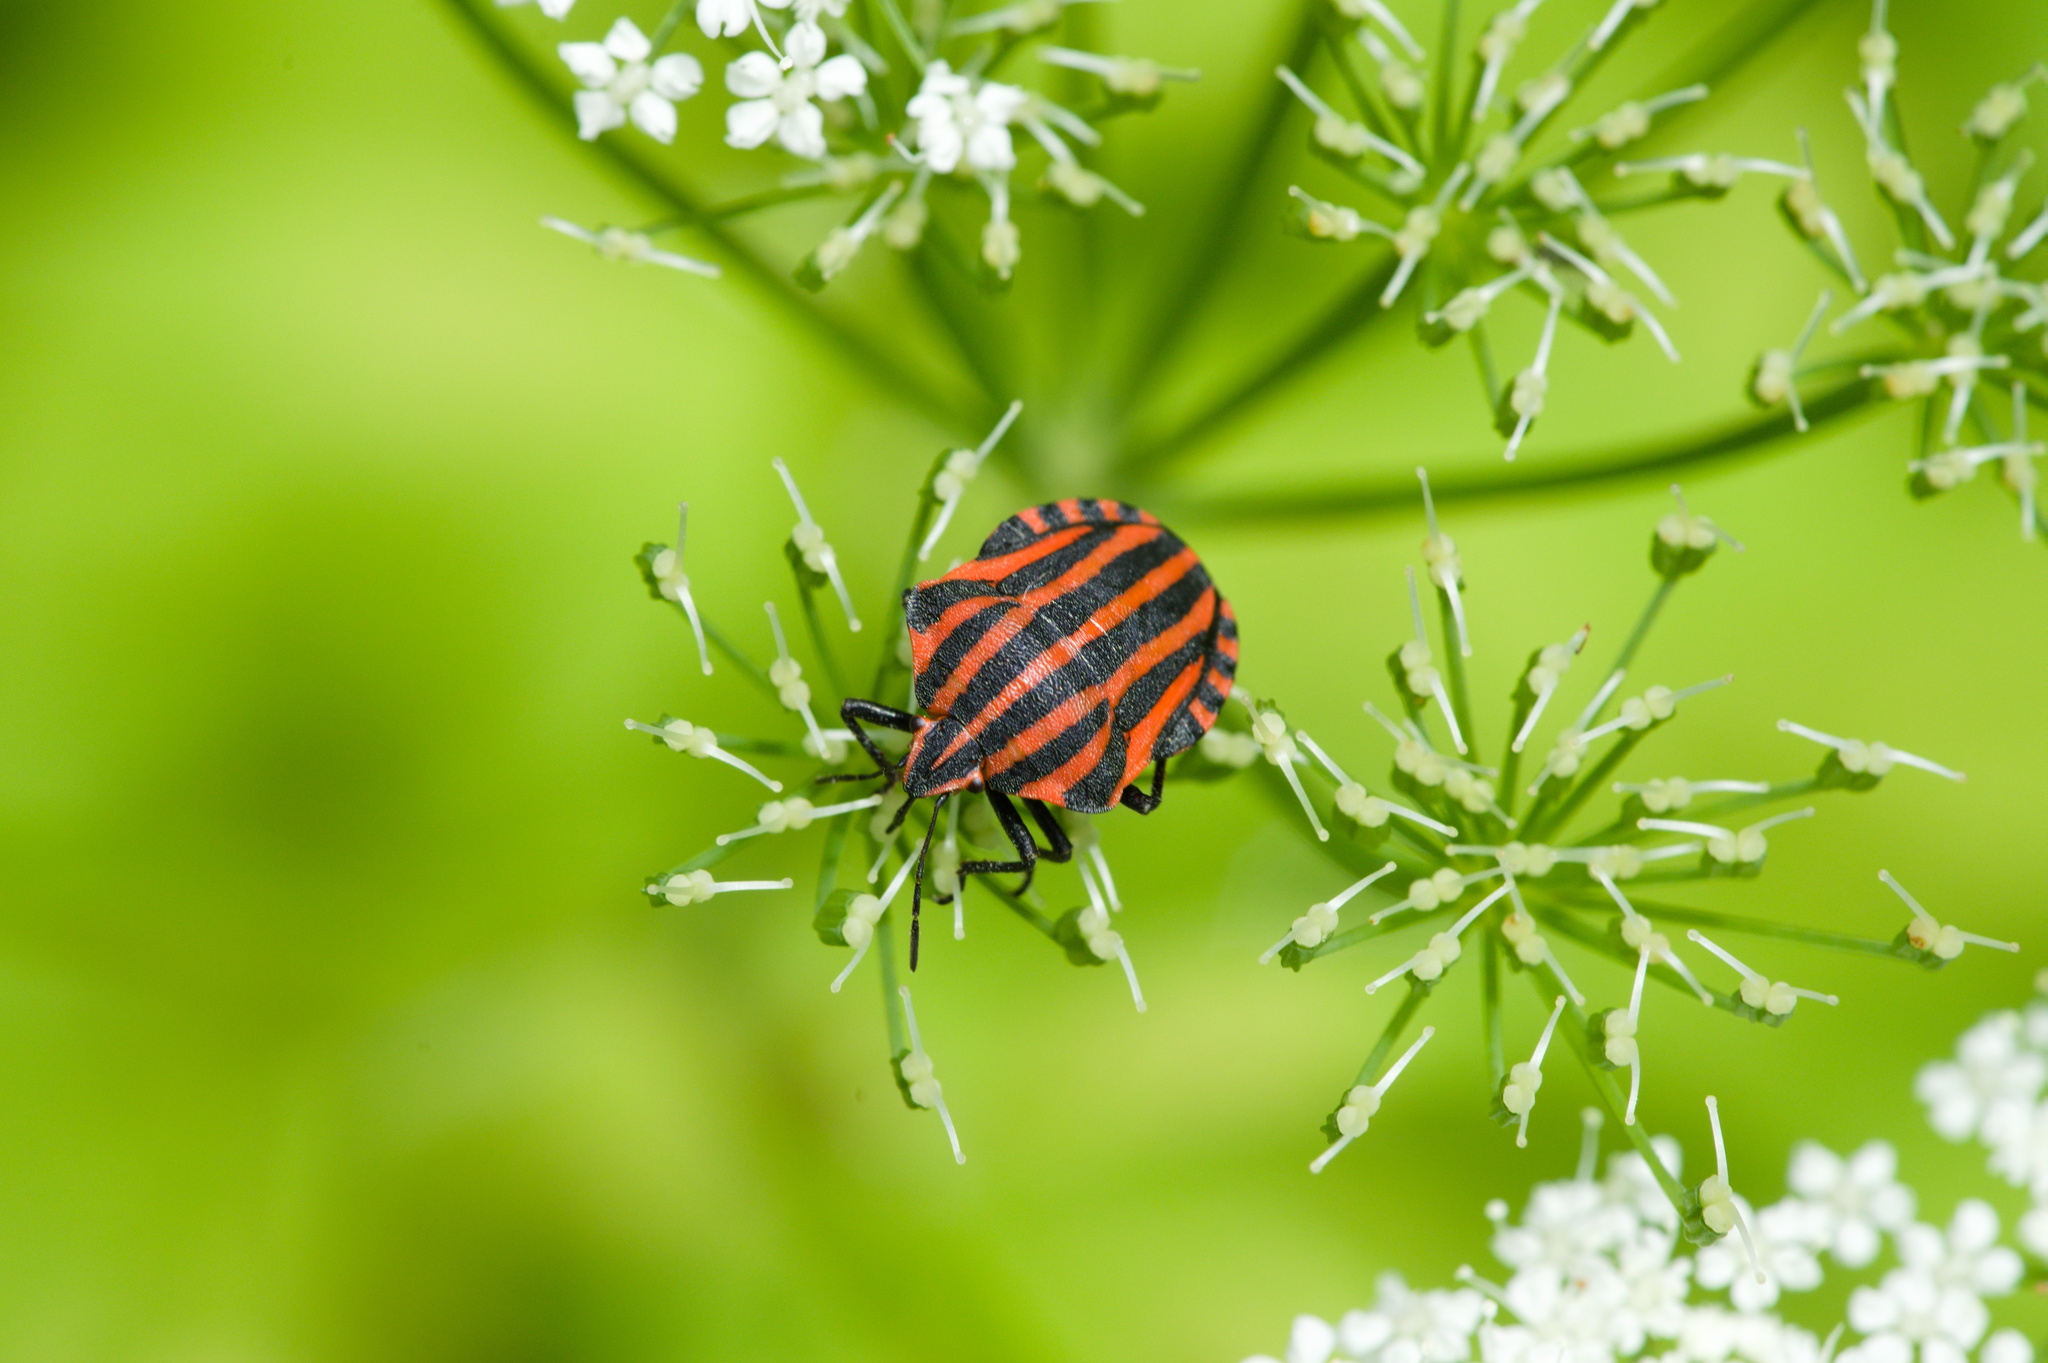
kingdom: Animalia
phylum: Arthropoda
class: Insecta
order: Hemiptera
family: Pentatomidae
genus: Graphosoma
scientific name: Graphosoma italicum
